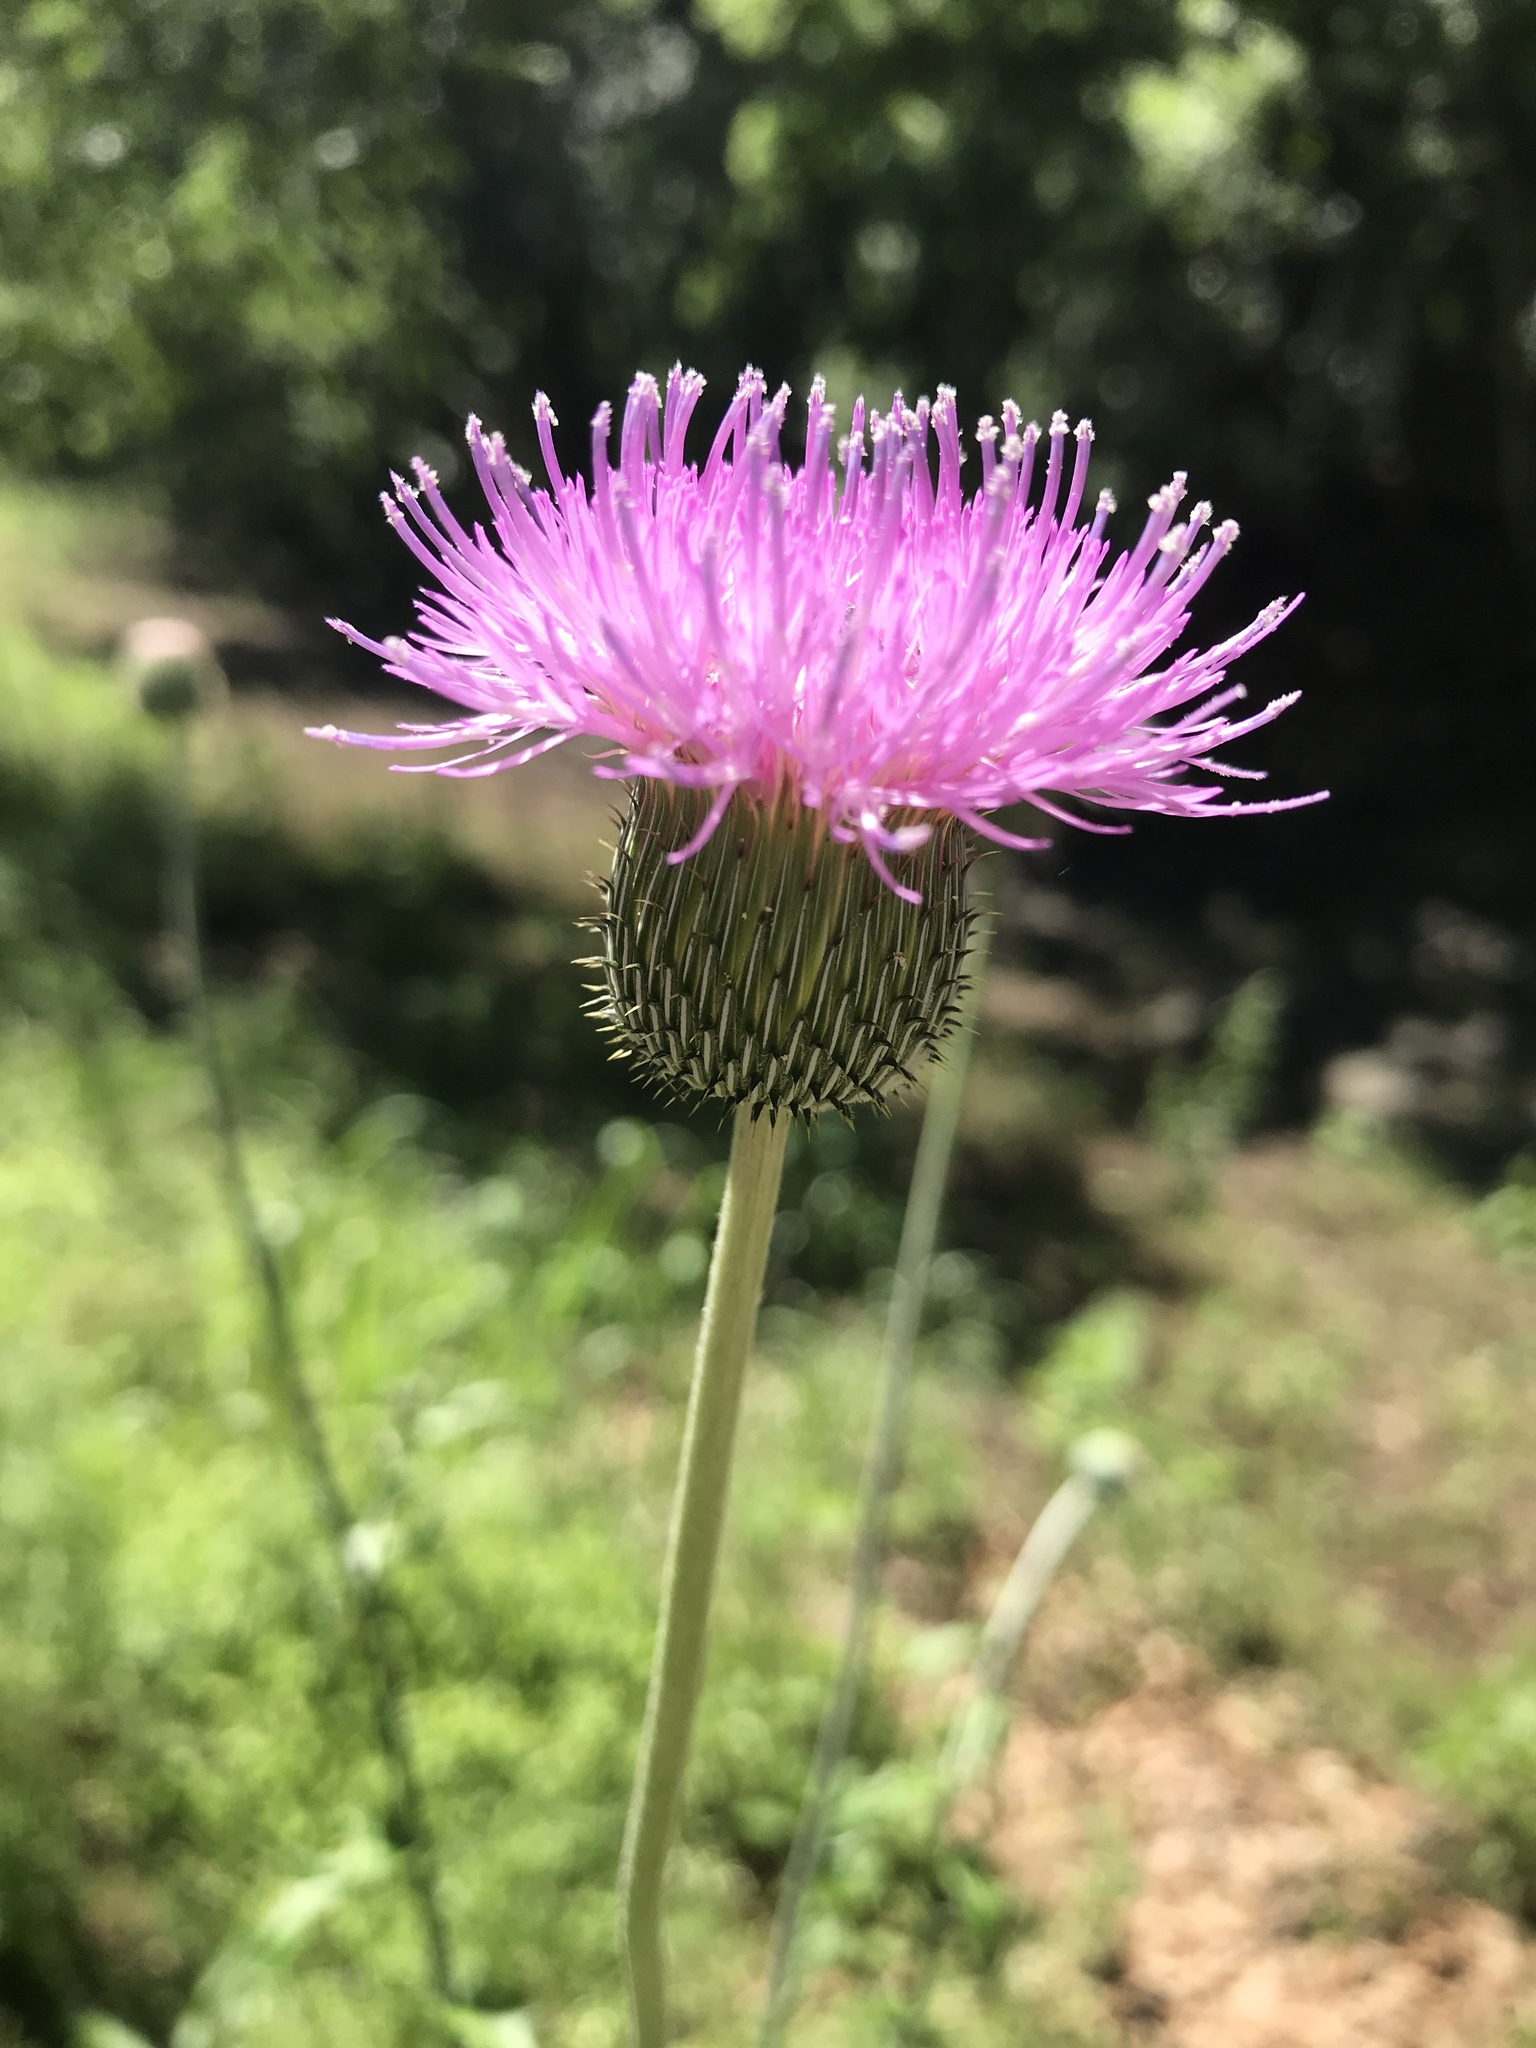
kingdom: Plantae
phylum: Tracheophyta
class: Magnoliopsida
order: Asterales
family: Asteraceae
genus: Cirsium
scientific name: Cirsium texanum
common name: Texas purple thistle
